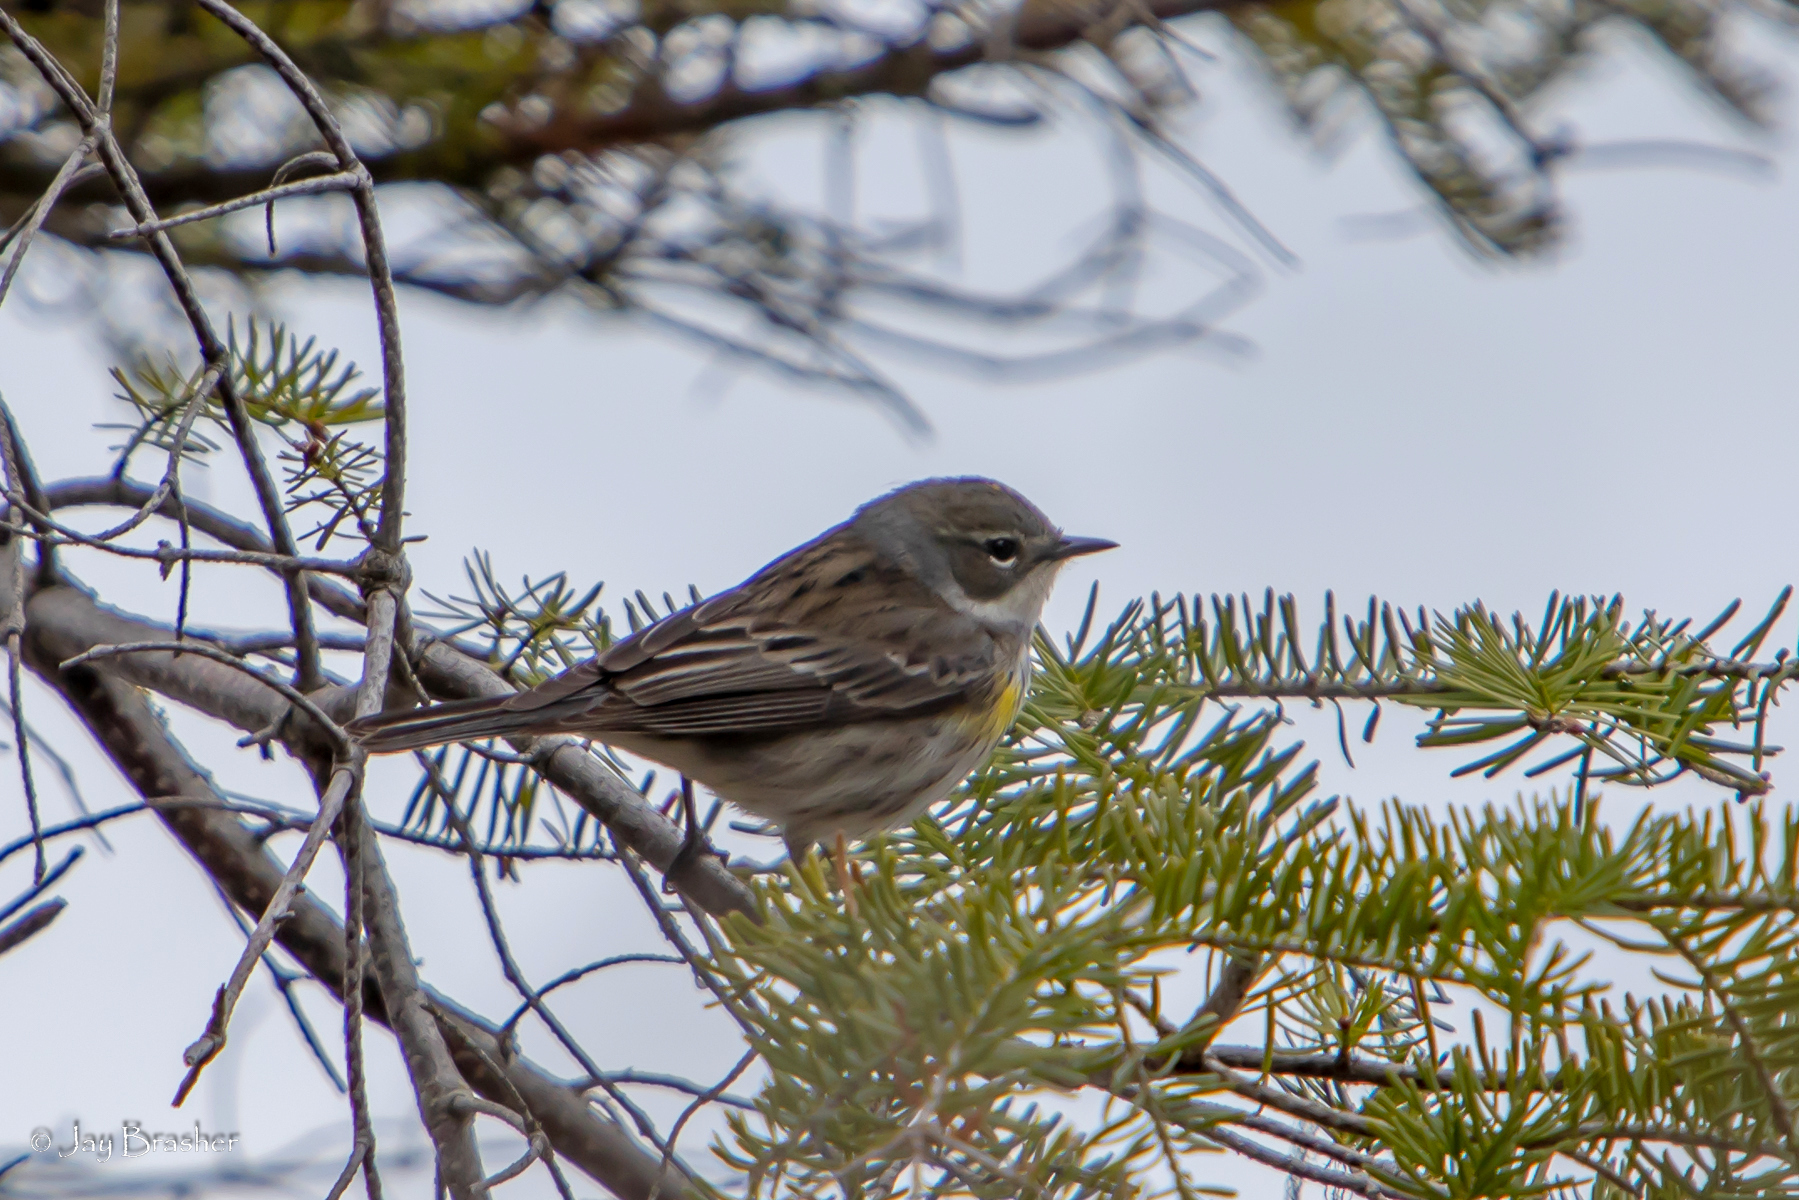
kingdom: Animalia
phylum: Chordata
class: Aves
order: Passeriformes
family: Parulidae
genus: Setophaga
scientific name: Setophaga coronata
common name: Myrtle warbler
